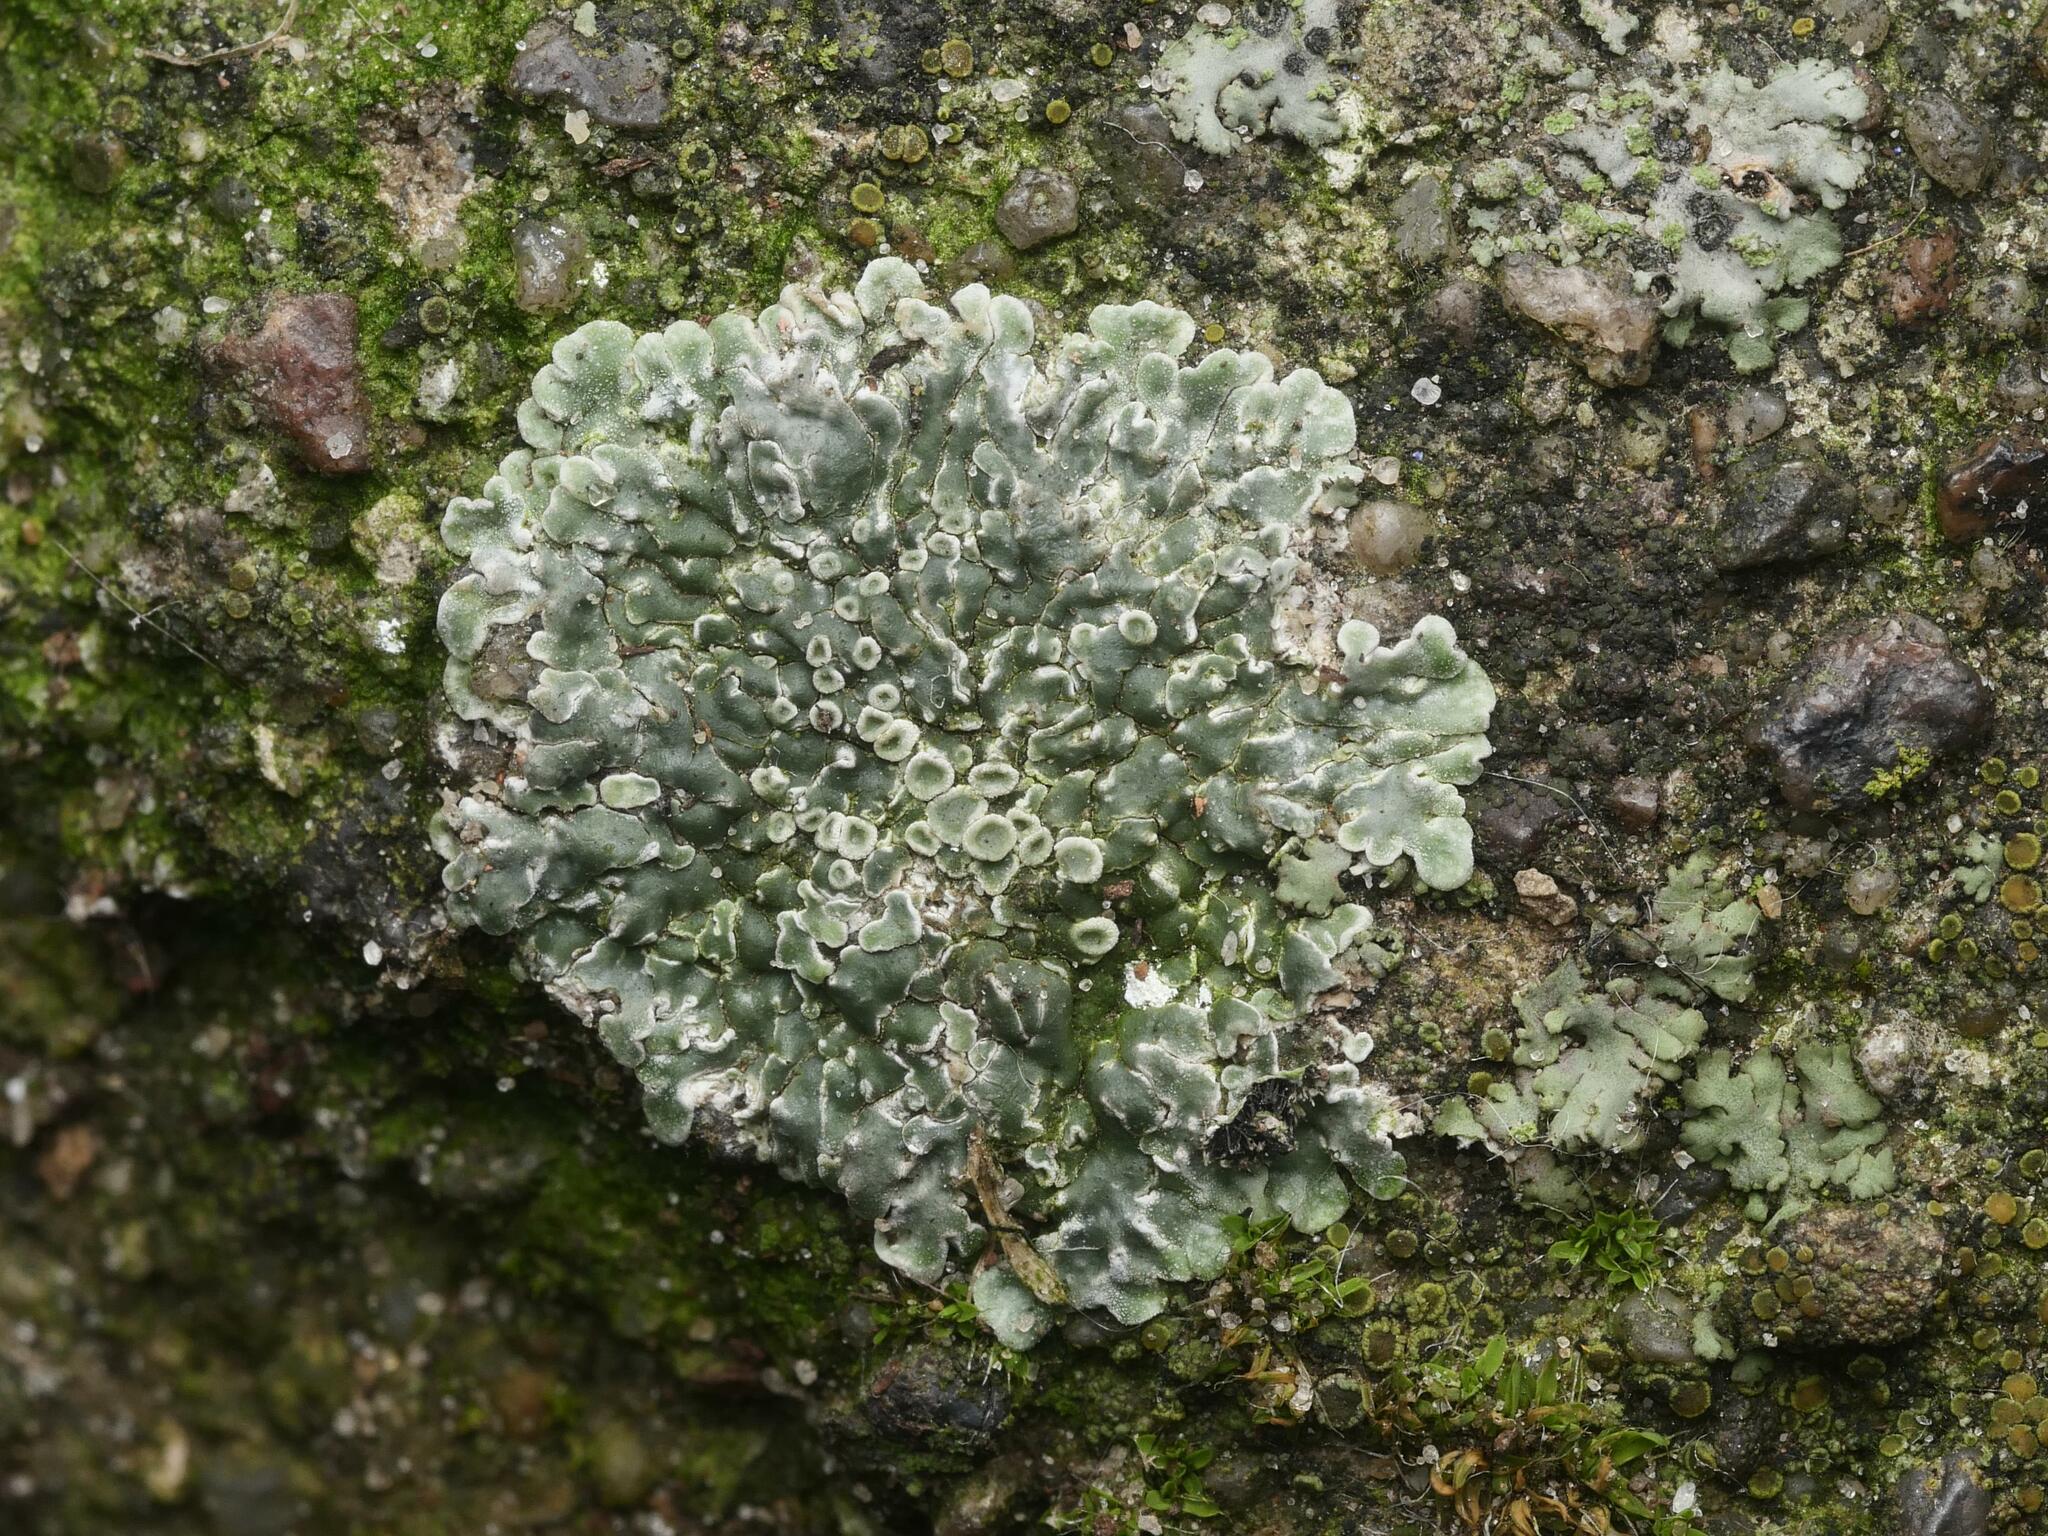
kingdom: Fungi
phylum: Ascomycota
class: Lecanoromycetes
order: Lecanorales
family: Lecanoraceae
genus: Protoparmeliopsis
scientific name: Protoparmeliopsis muralis
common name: Stonewall rim lichen
